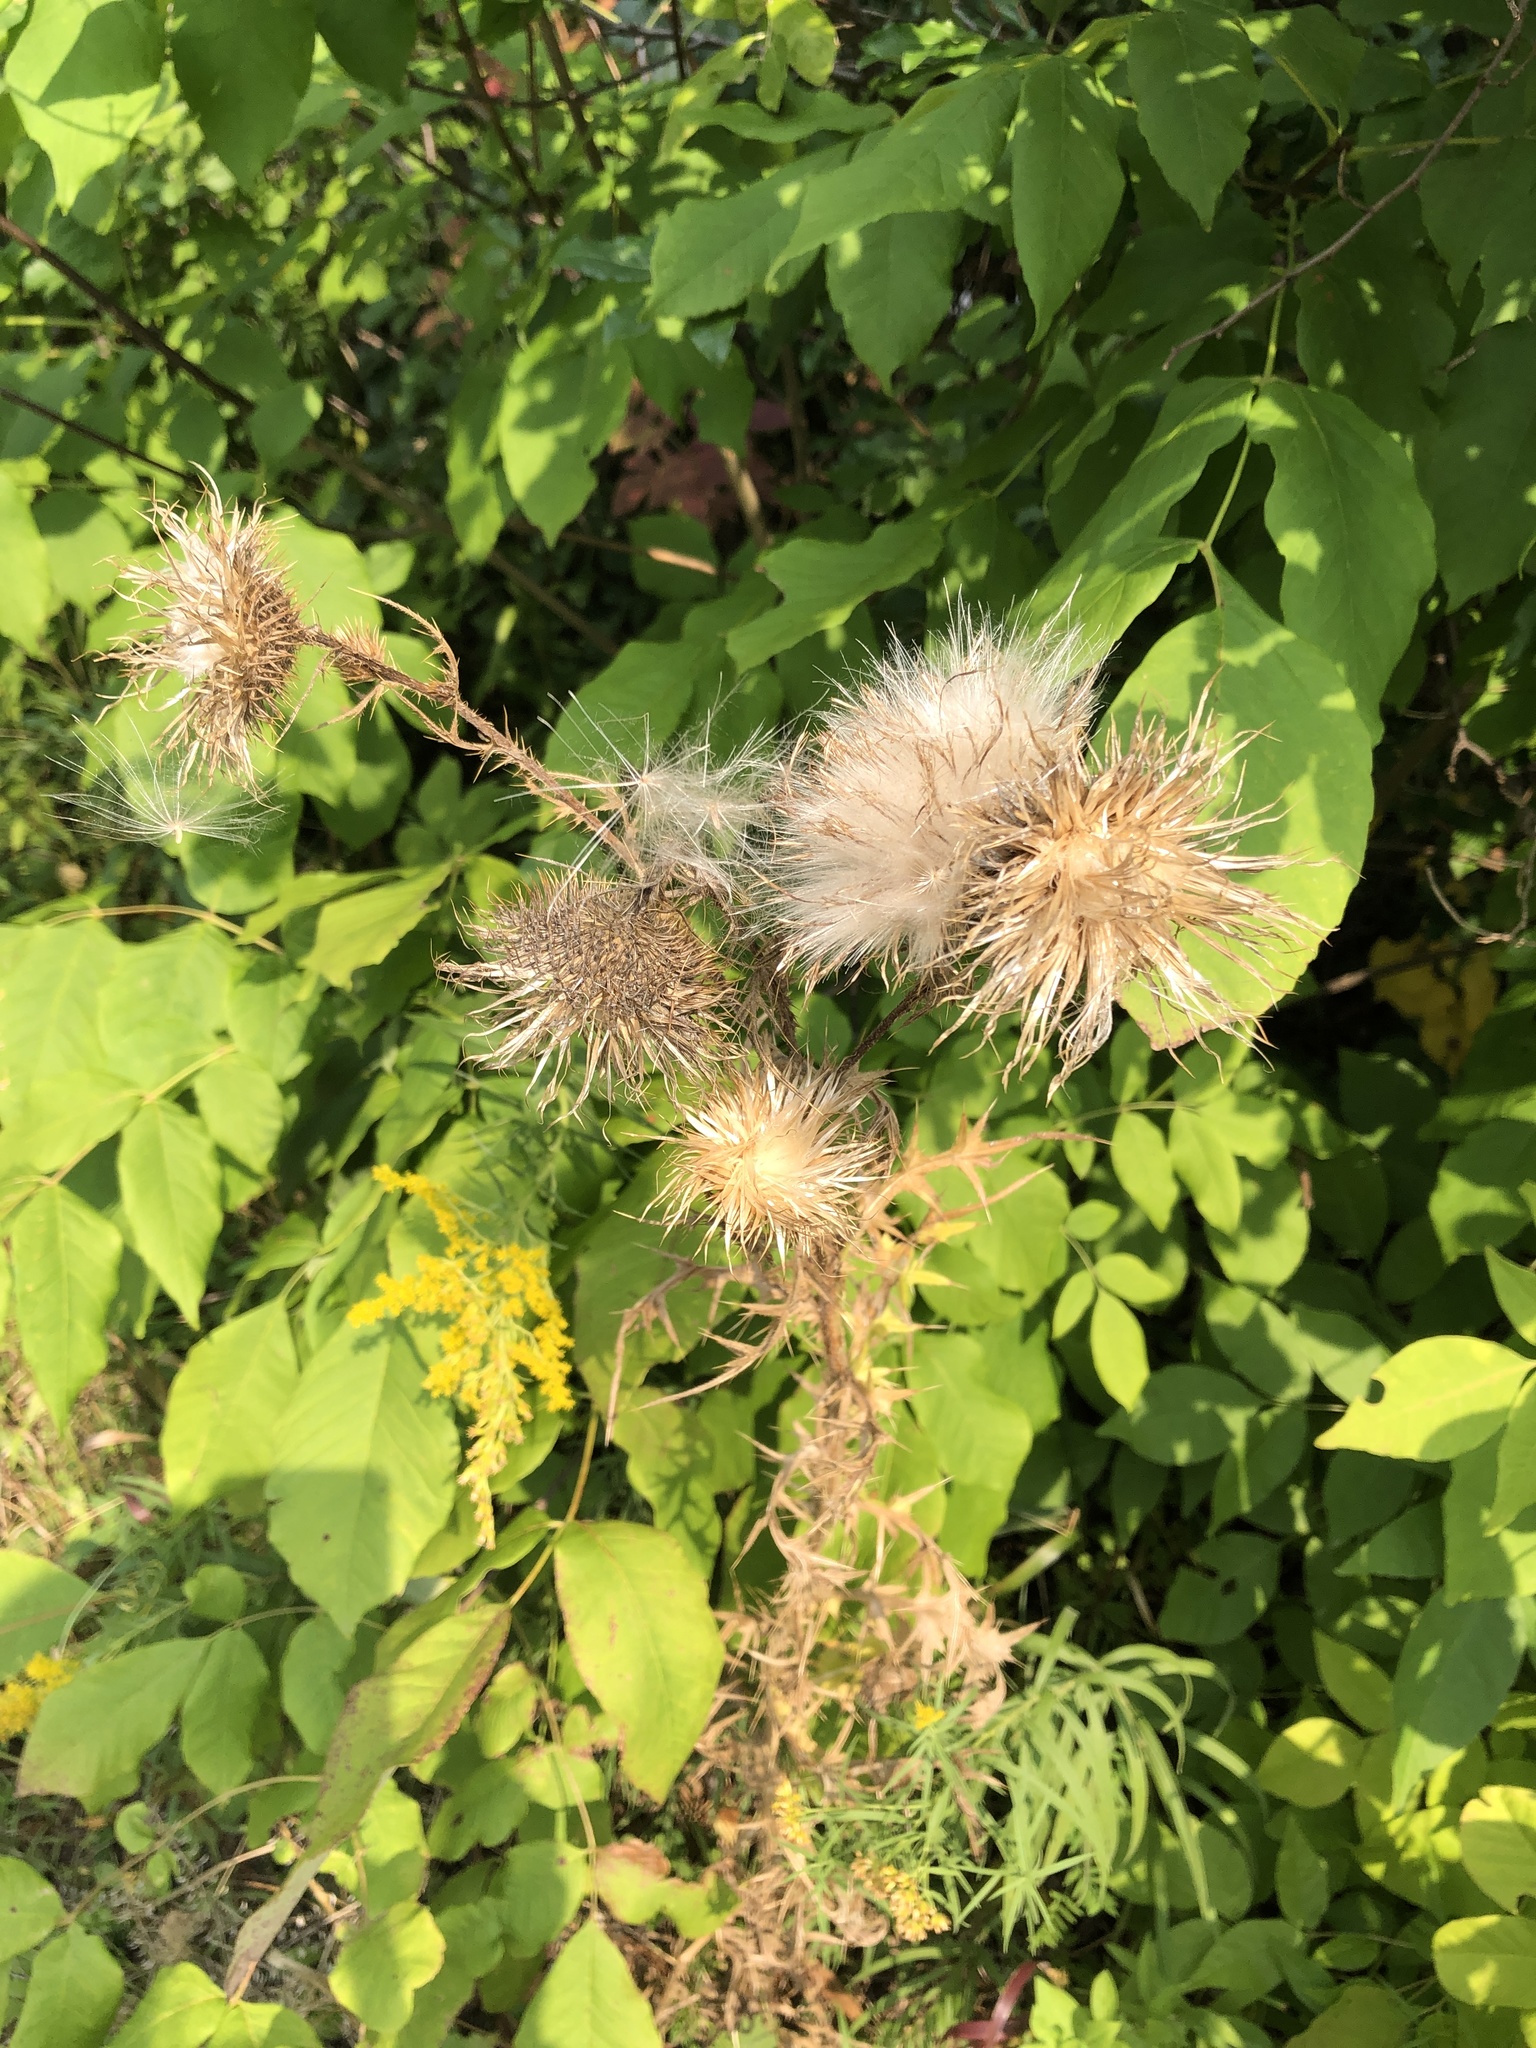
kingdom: Plantae
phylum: Tracheophyta
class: Magnoliopsida
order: Asterales
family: Asteraceae
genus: Cirsium
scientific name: Cirsium vulgare
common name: Bull thistle
